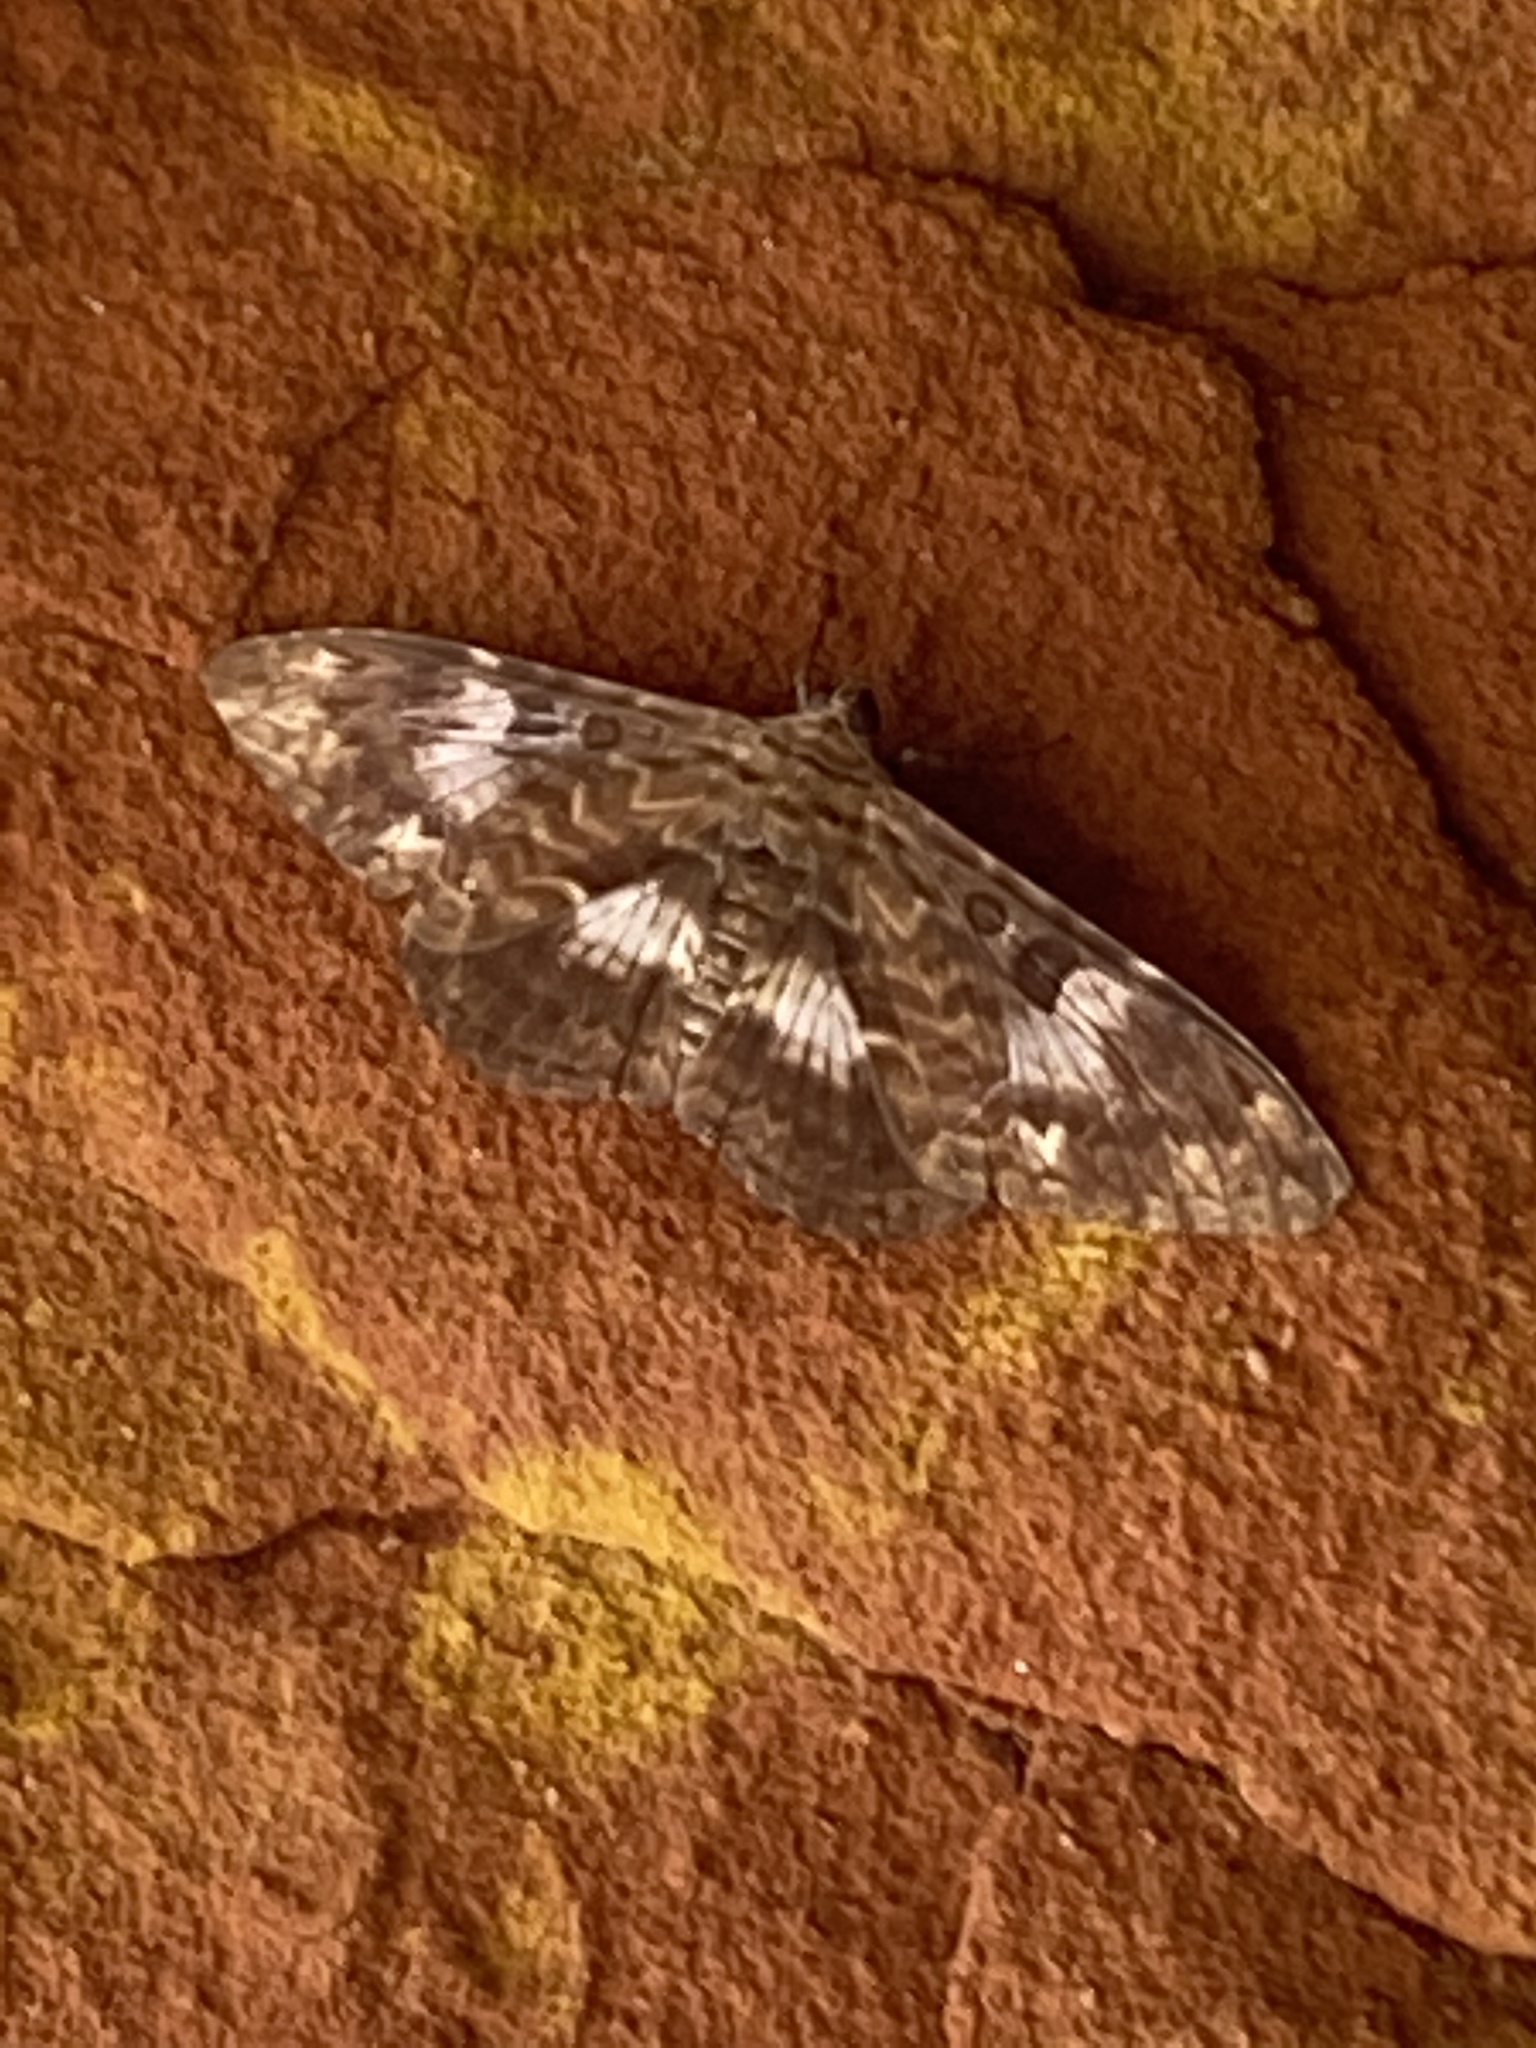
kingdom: Animalia
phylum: Arthropoda
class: Insecta
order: Lepidoptera
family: Erebidae
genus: Letis
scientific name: Letis specularis
